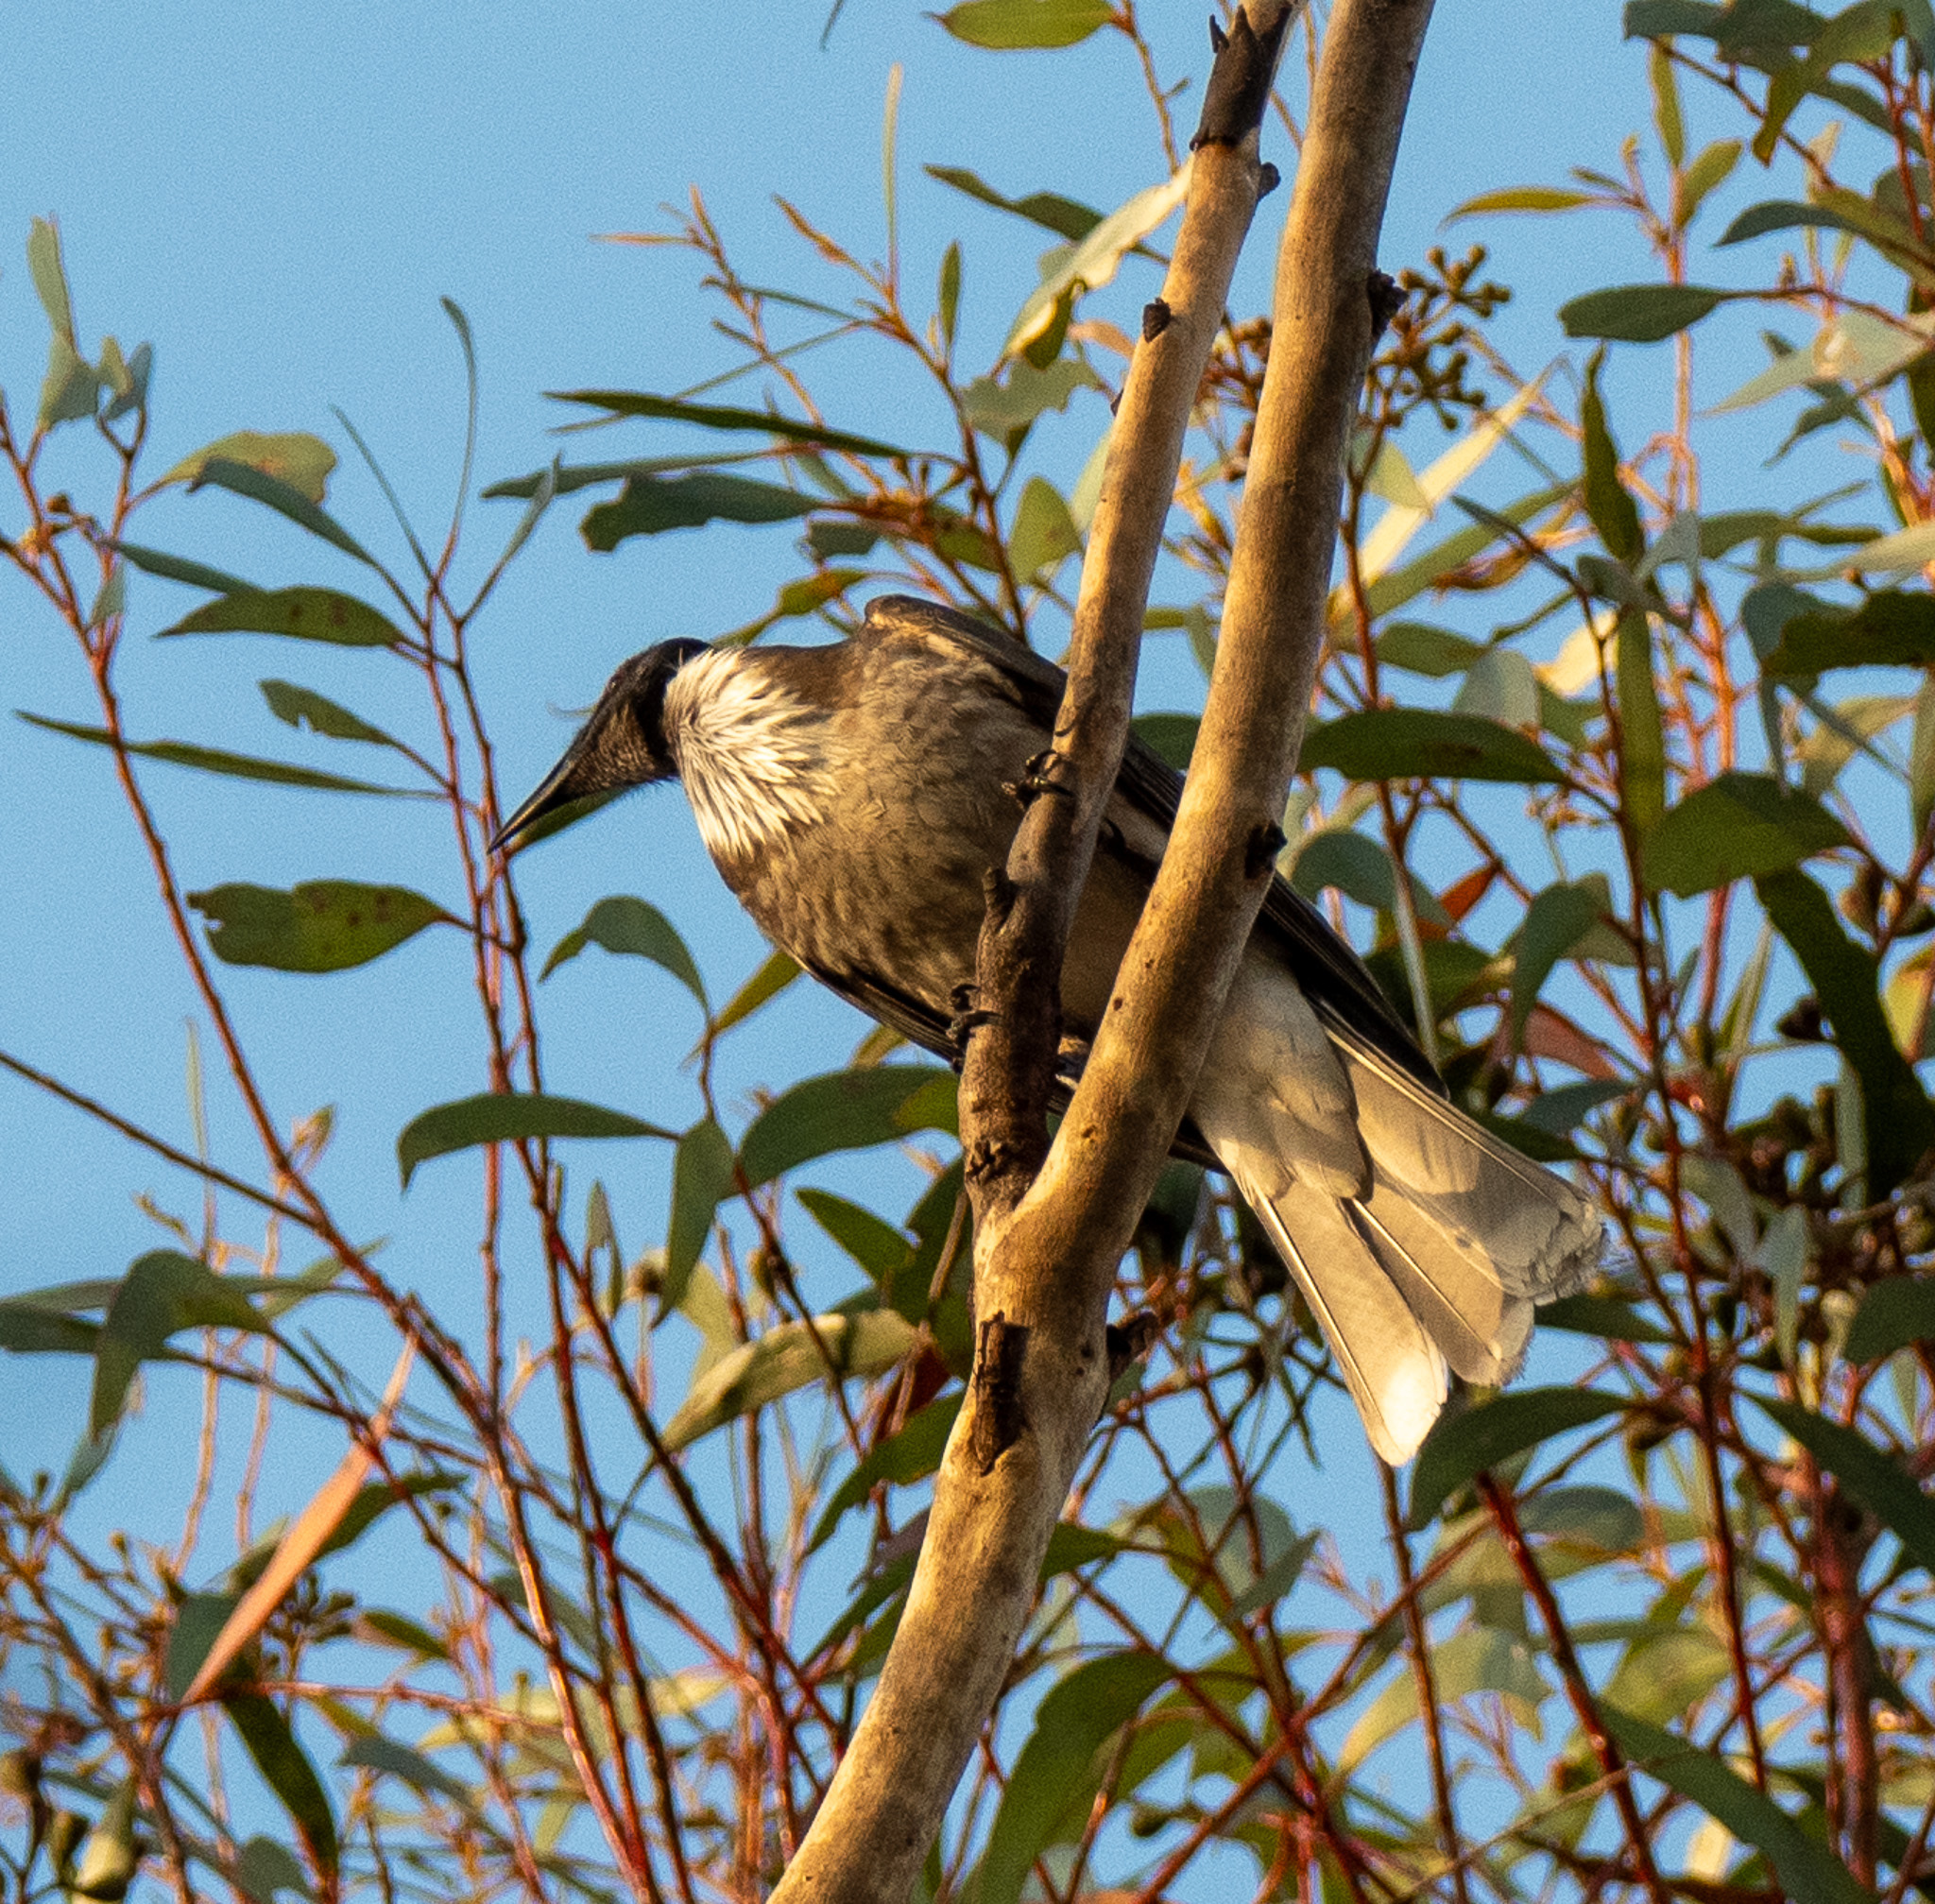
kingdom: Animalia
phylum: Chordata
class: Aves
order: Passeriformes
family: Meliphagidae
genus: Philemon
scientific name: Philemon corniculatus
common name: Noisy friarbird
